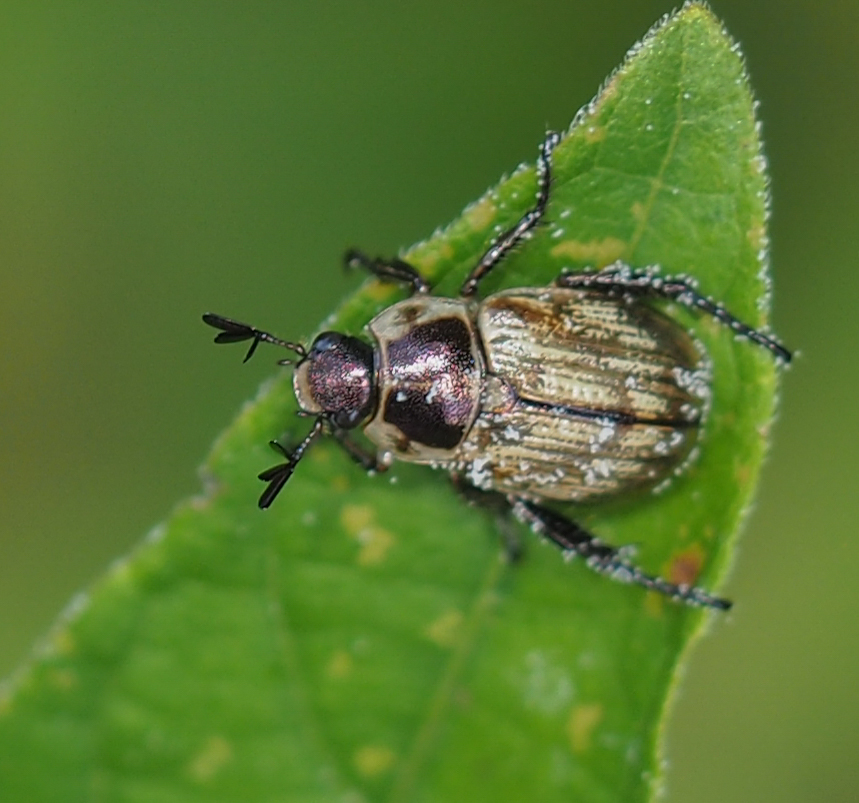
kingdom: Animalia
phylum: Arthropoda
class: Insecta
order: Coleoptera
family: Scarabaeidae
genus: Exomala
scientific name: Exomala orientalis
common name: Oriental beetle
